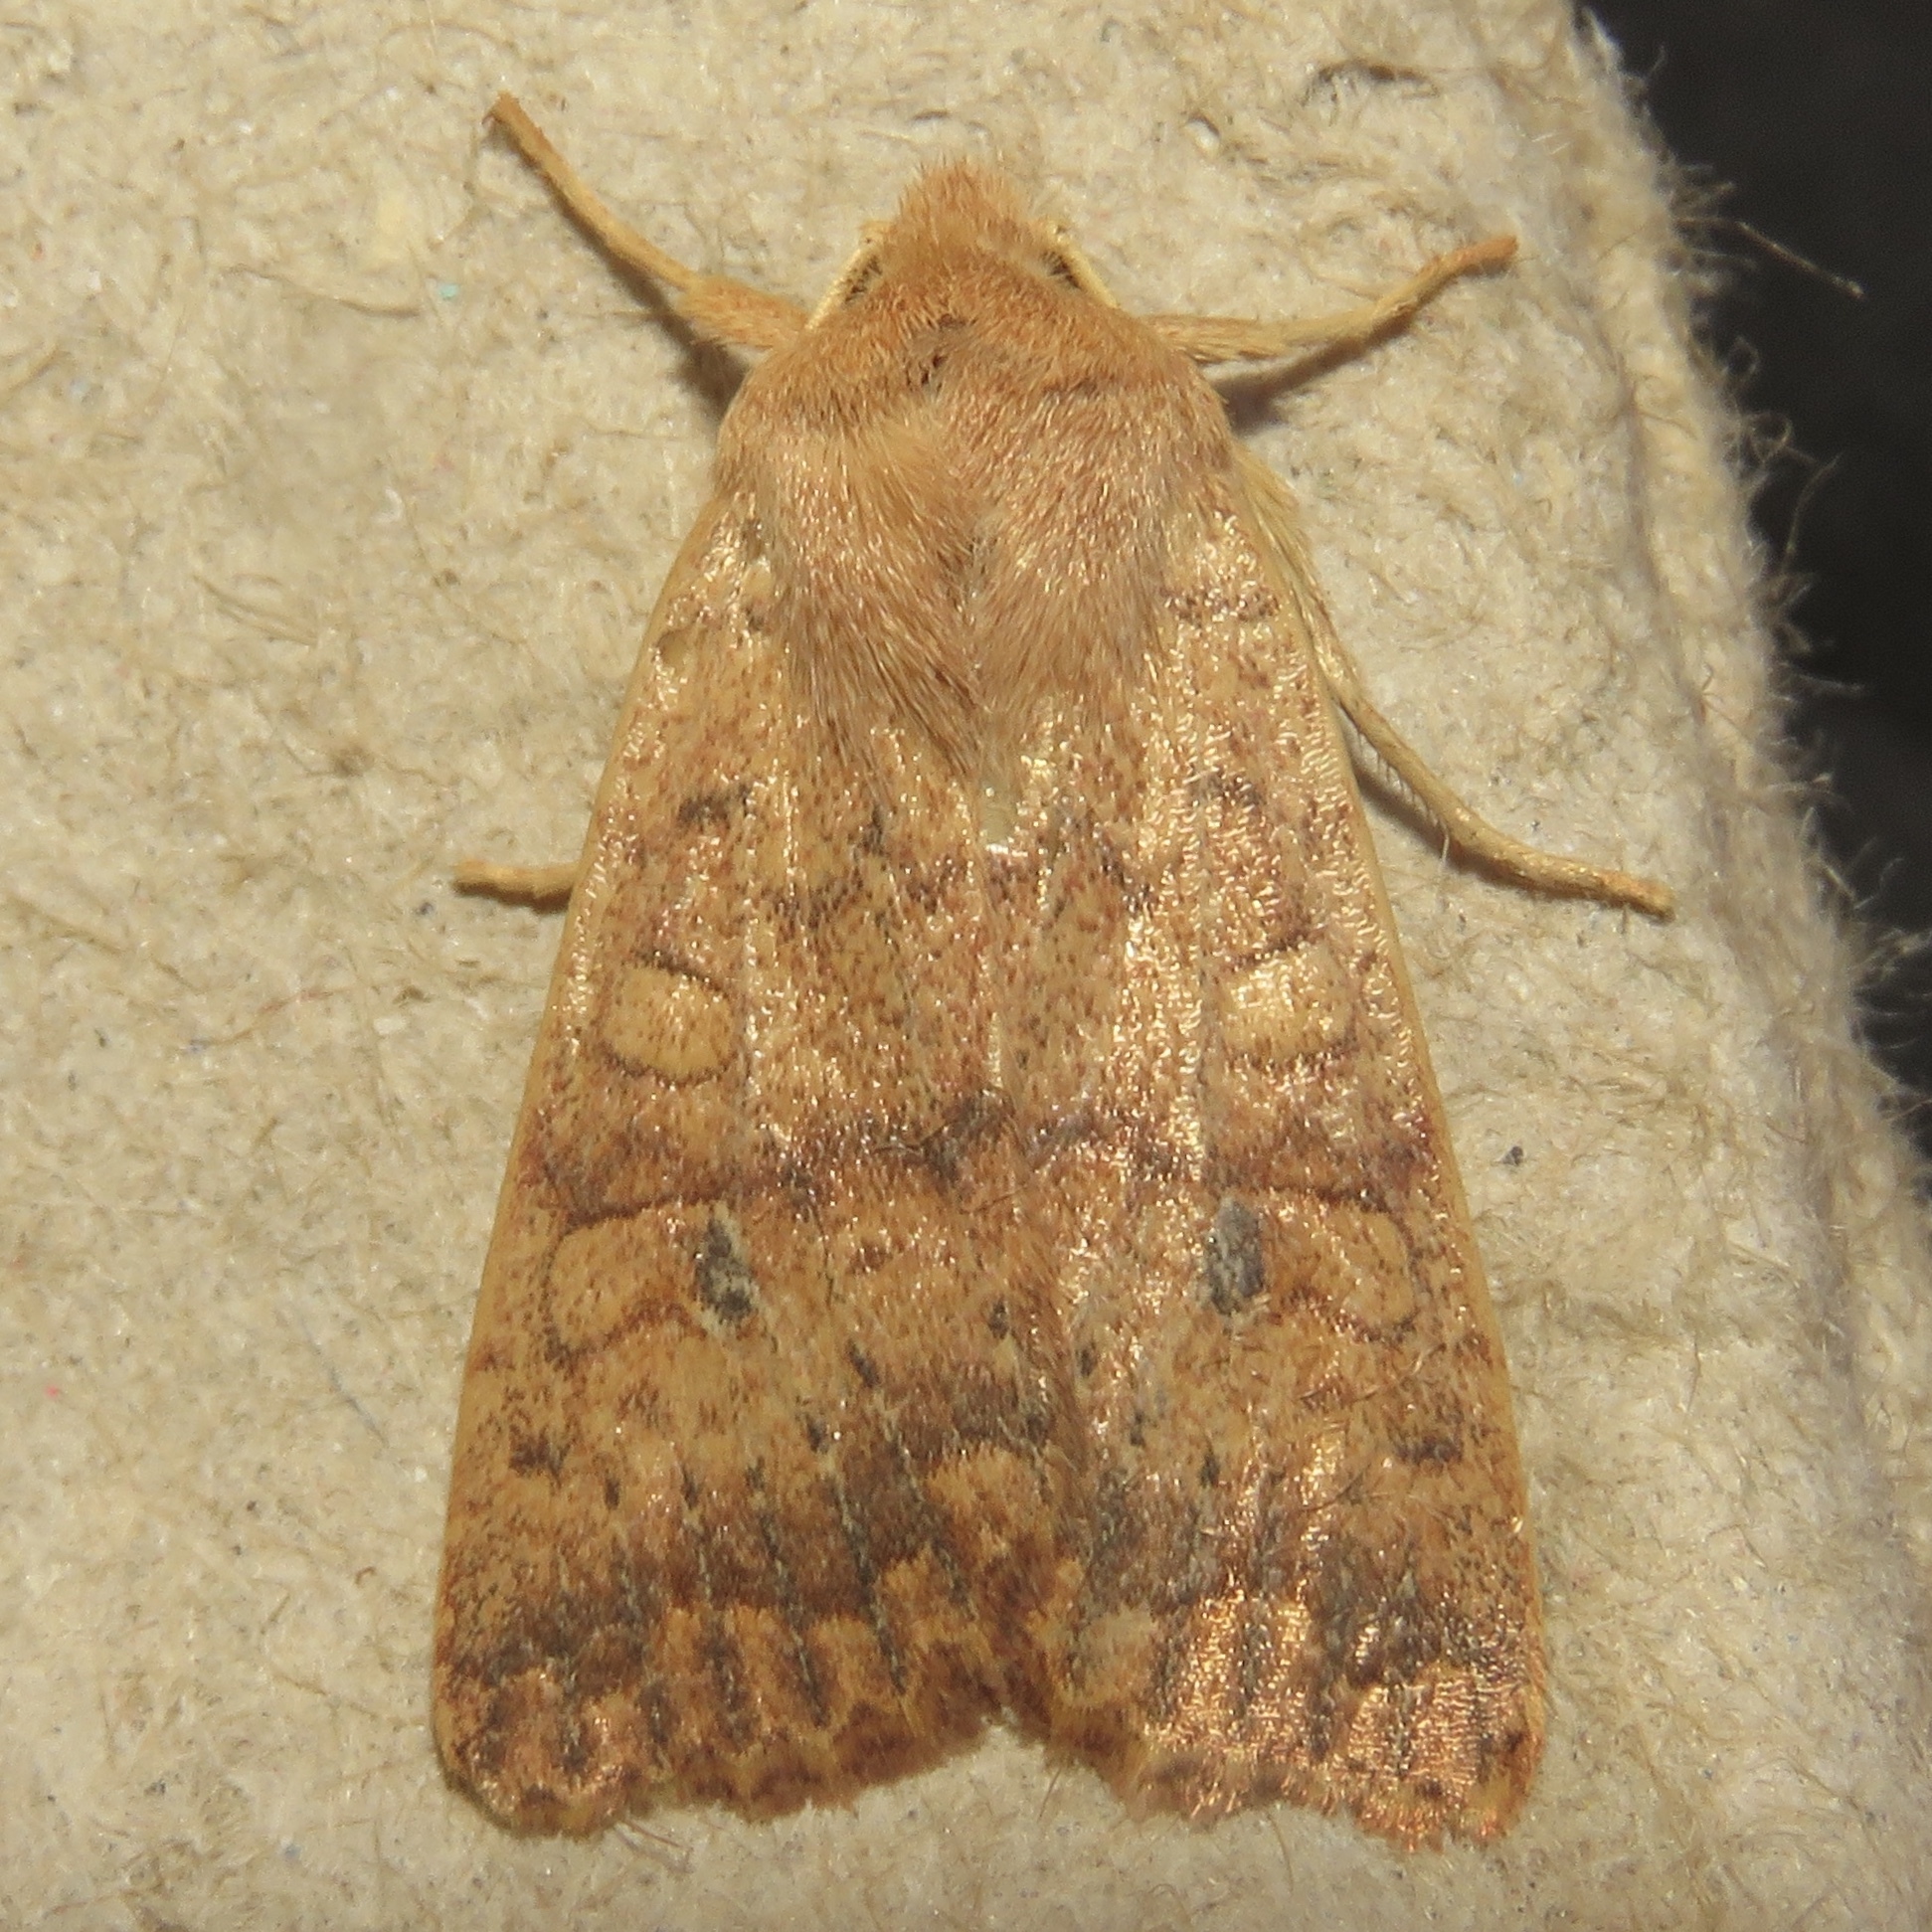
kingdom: Animalia
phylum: Arthropoda
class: Insecta
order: Lepidoptera
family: Noctuidae
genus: Agrochola
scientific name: Agrochola bicolorago
